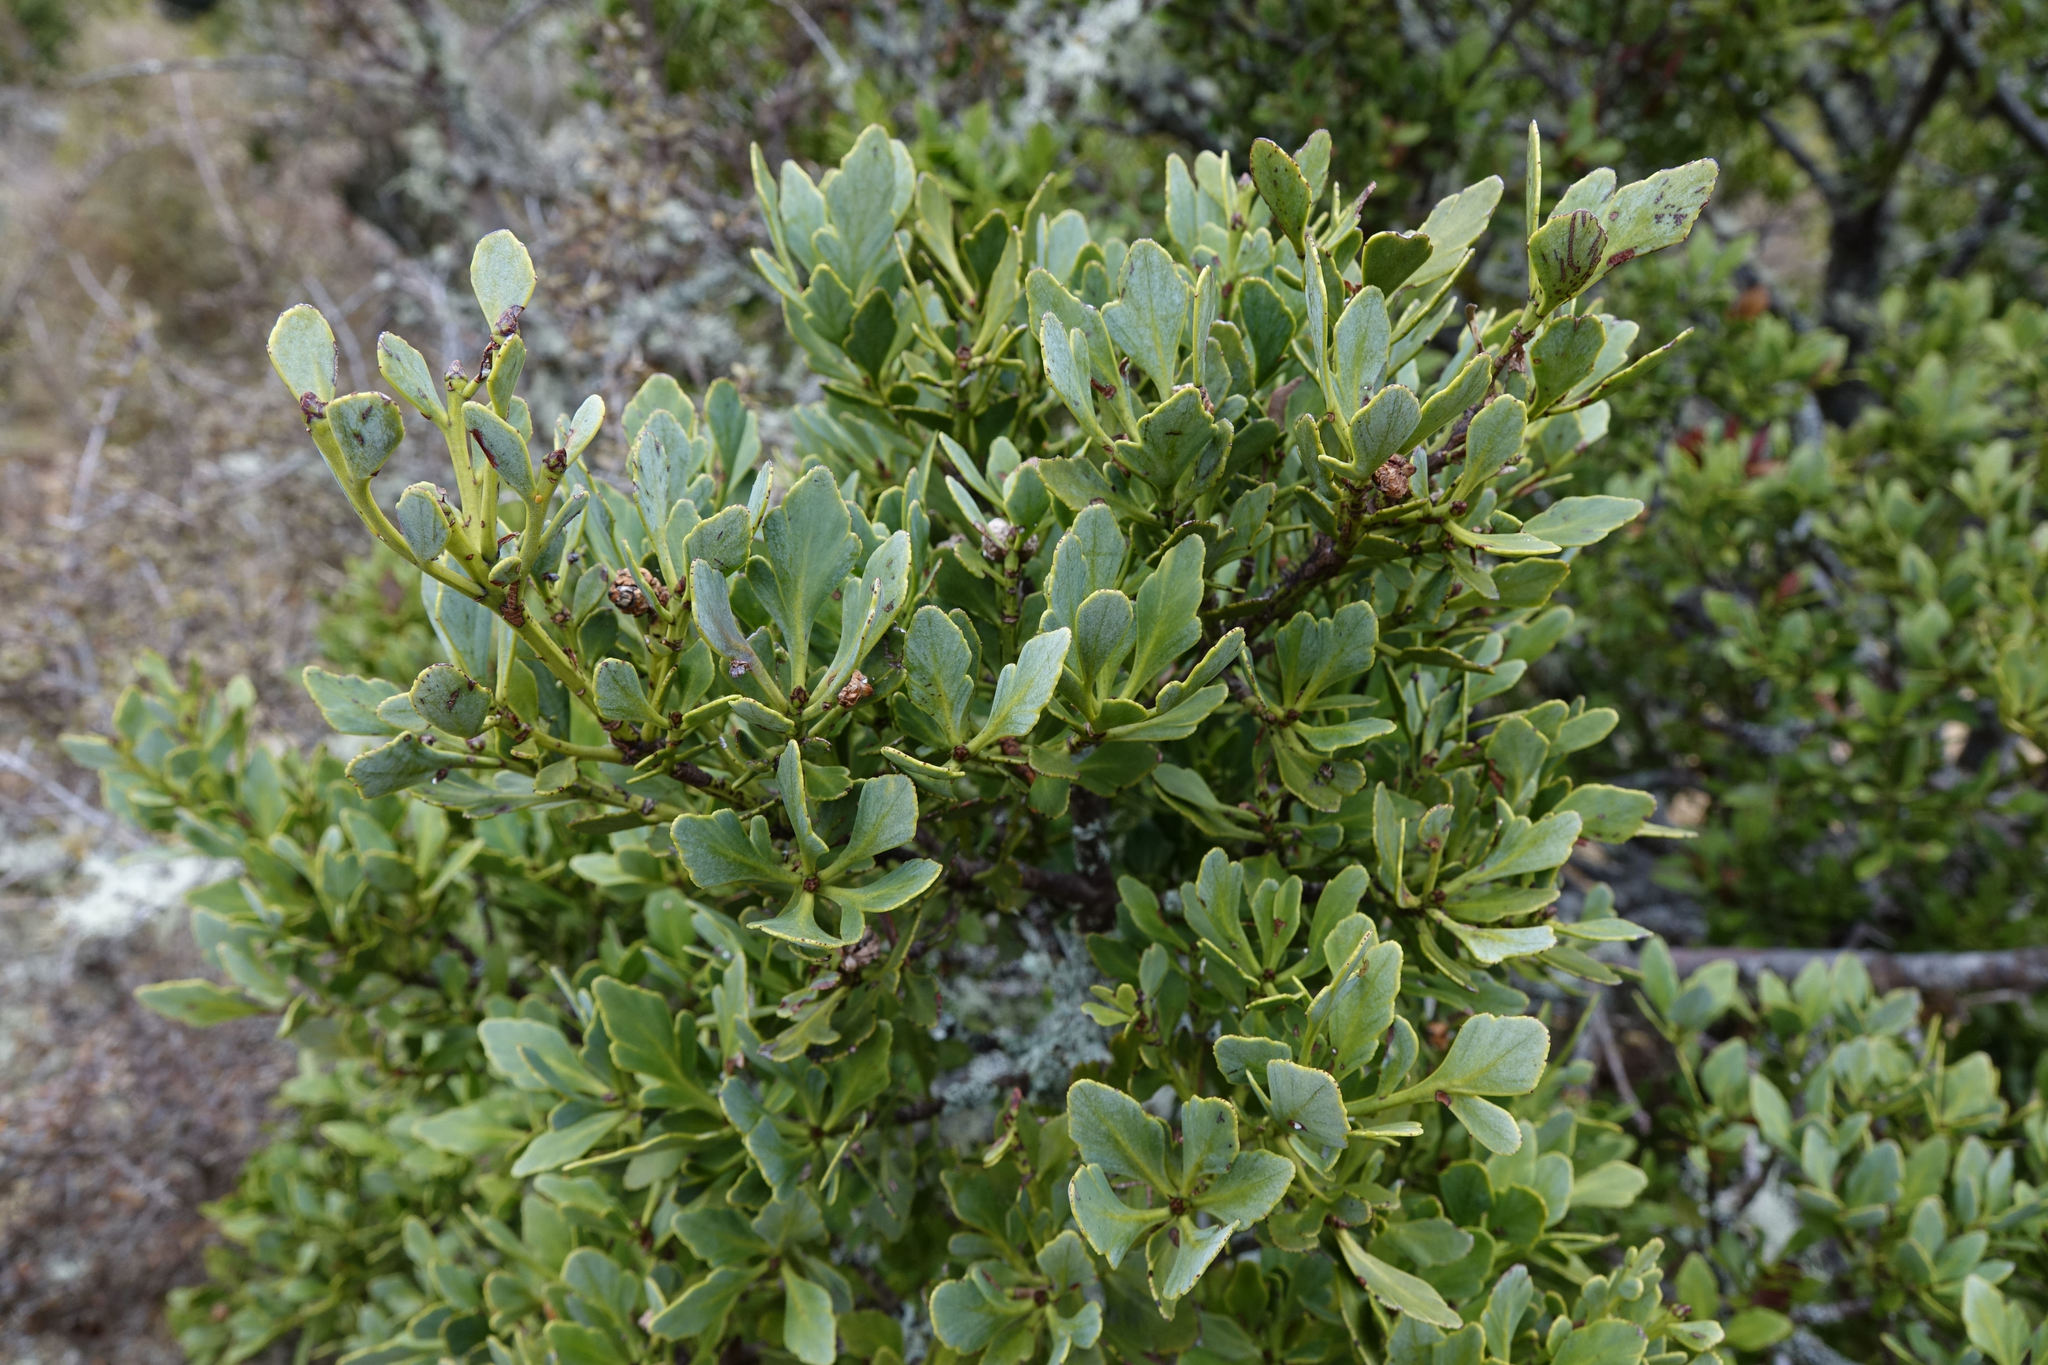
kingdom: Plantae
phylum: Tracheophyta
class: Pinopsida
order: Pinales
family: Phyllocladaceae
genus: Phyllocladus
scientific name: Phyllocladus trichomanoides
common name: Celery pine
